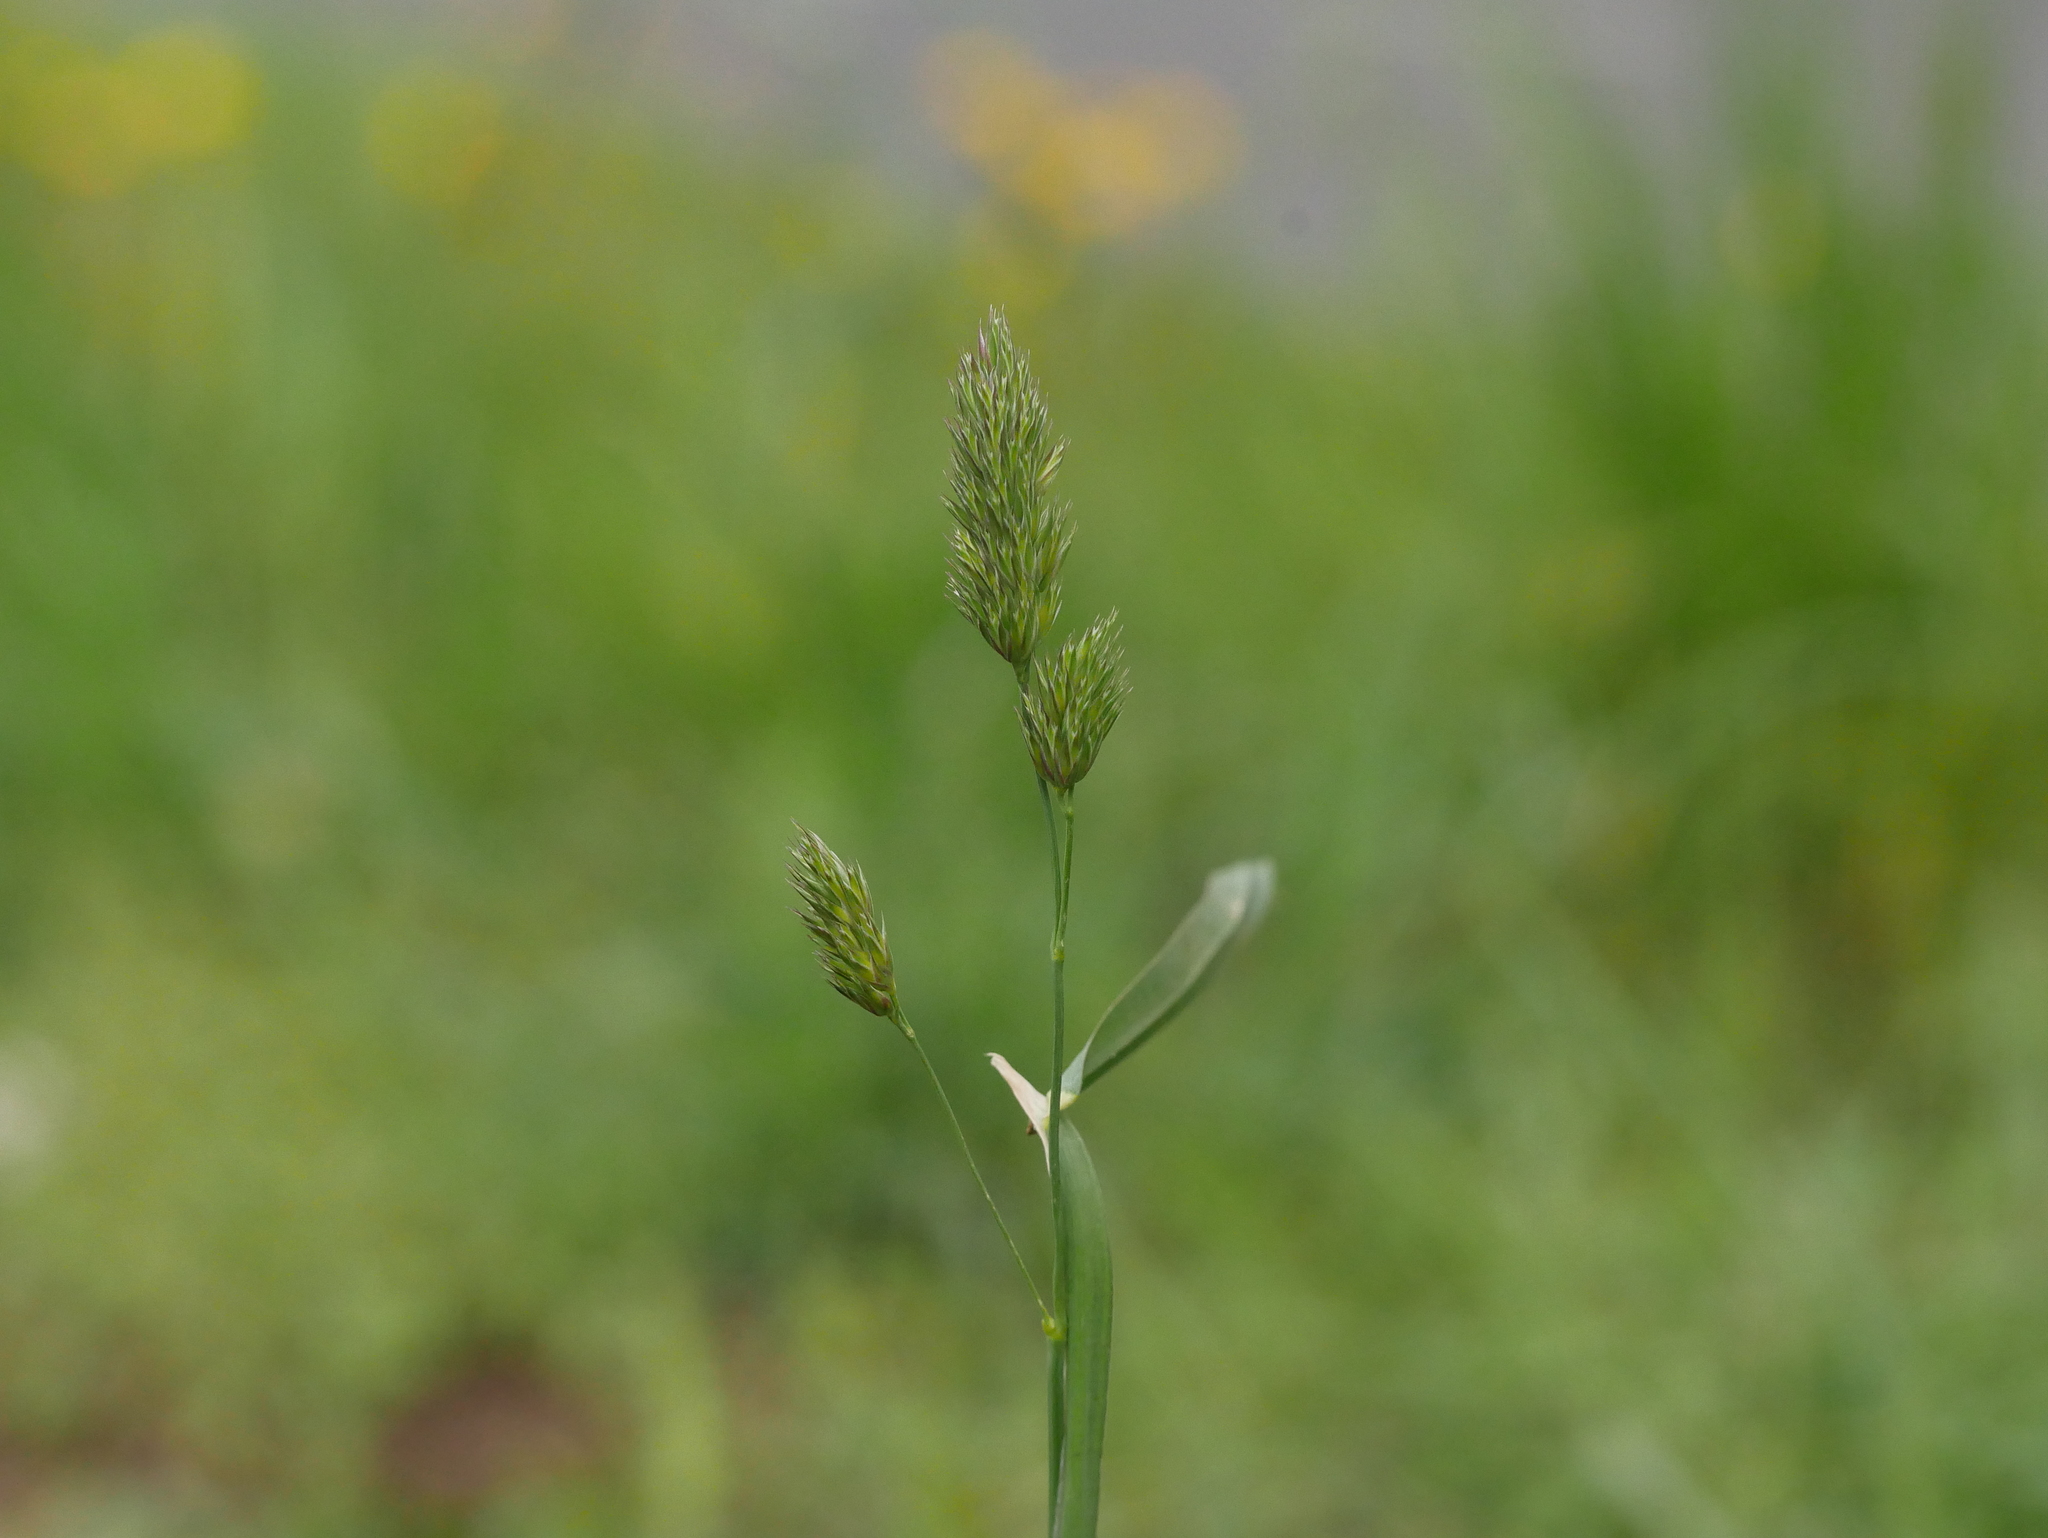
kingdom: Plantae
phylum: Tracheophyta
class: Liliopsida
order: Poales
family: Poaceae
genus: Dactylis
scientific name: Dactylis glomerata
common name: Orchardgrass
